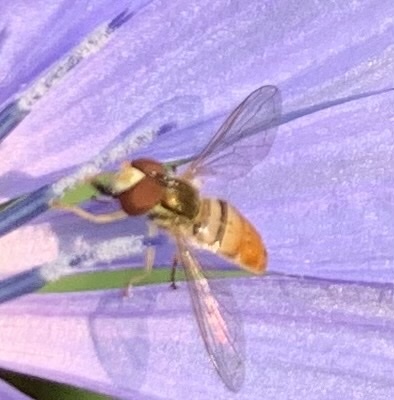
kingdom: Animalia
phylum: Arthropoda
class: Insecta
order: Diptera
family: Syrphidae
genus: Toxomerus
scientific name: Toxomerus marginatus
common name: Syrphid fly
